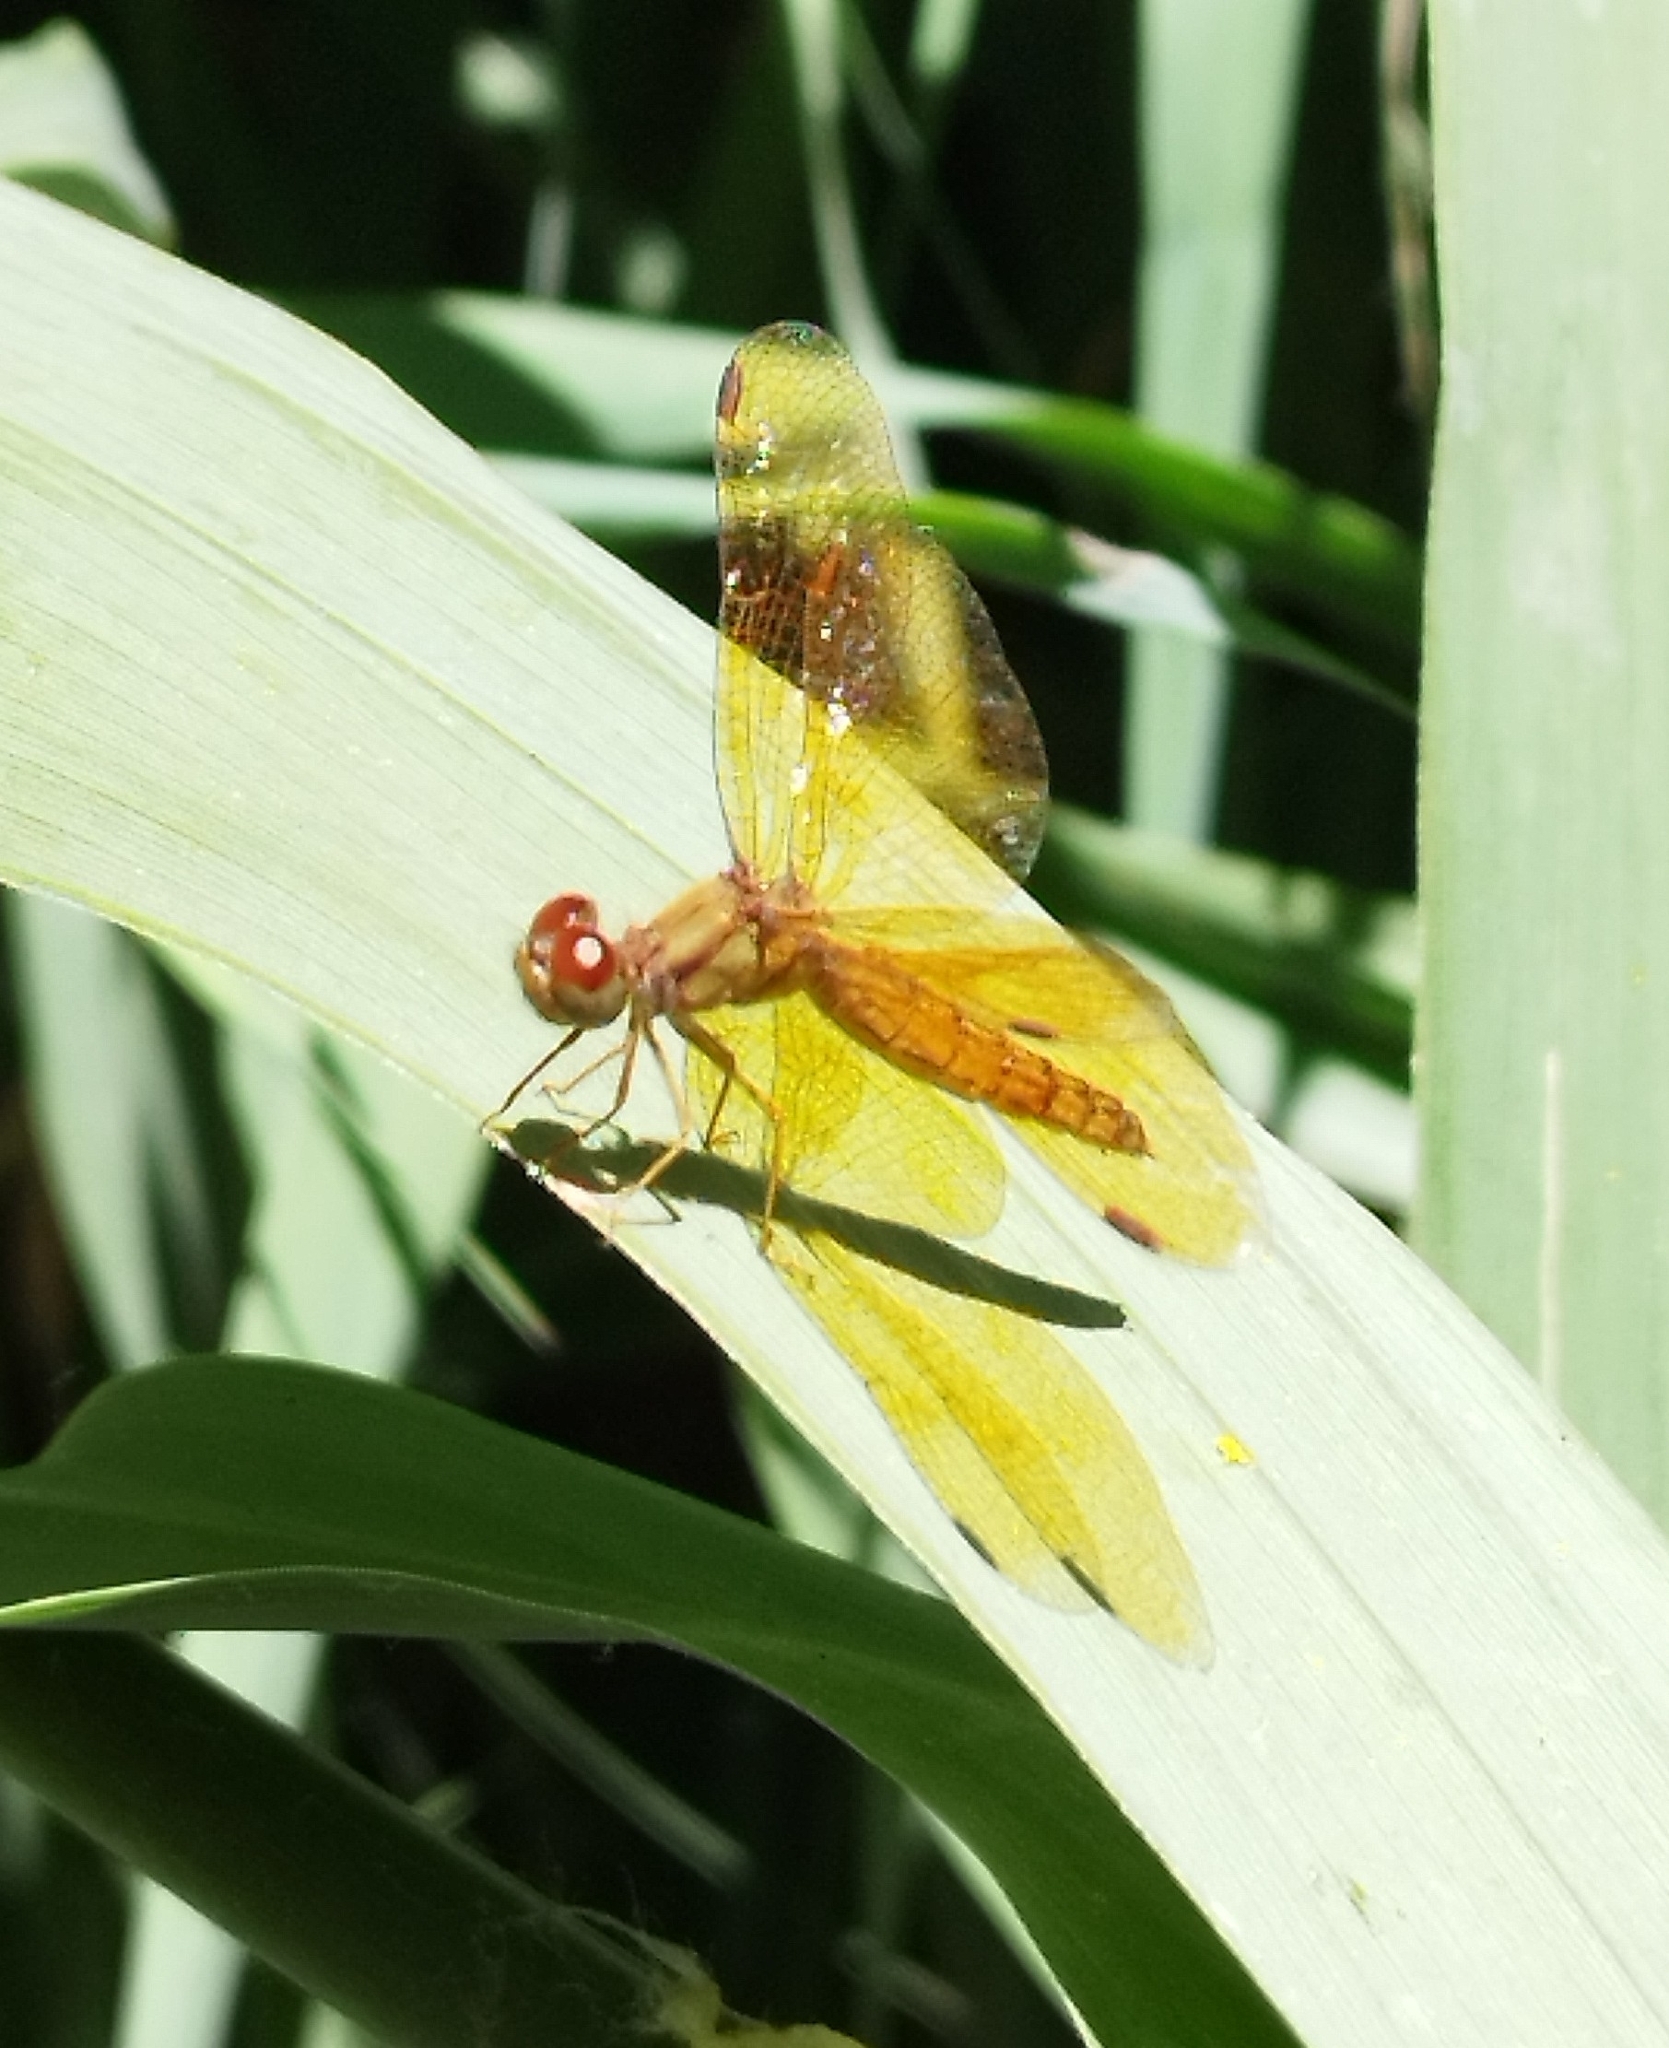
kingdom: Animalia
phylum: Arthropoda
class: Insecta
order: Odonata
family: Libellulidae
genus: Perithemis
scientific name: Perithemis icteroptera
